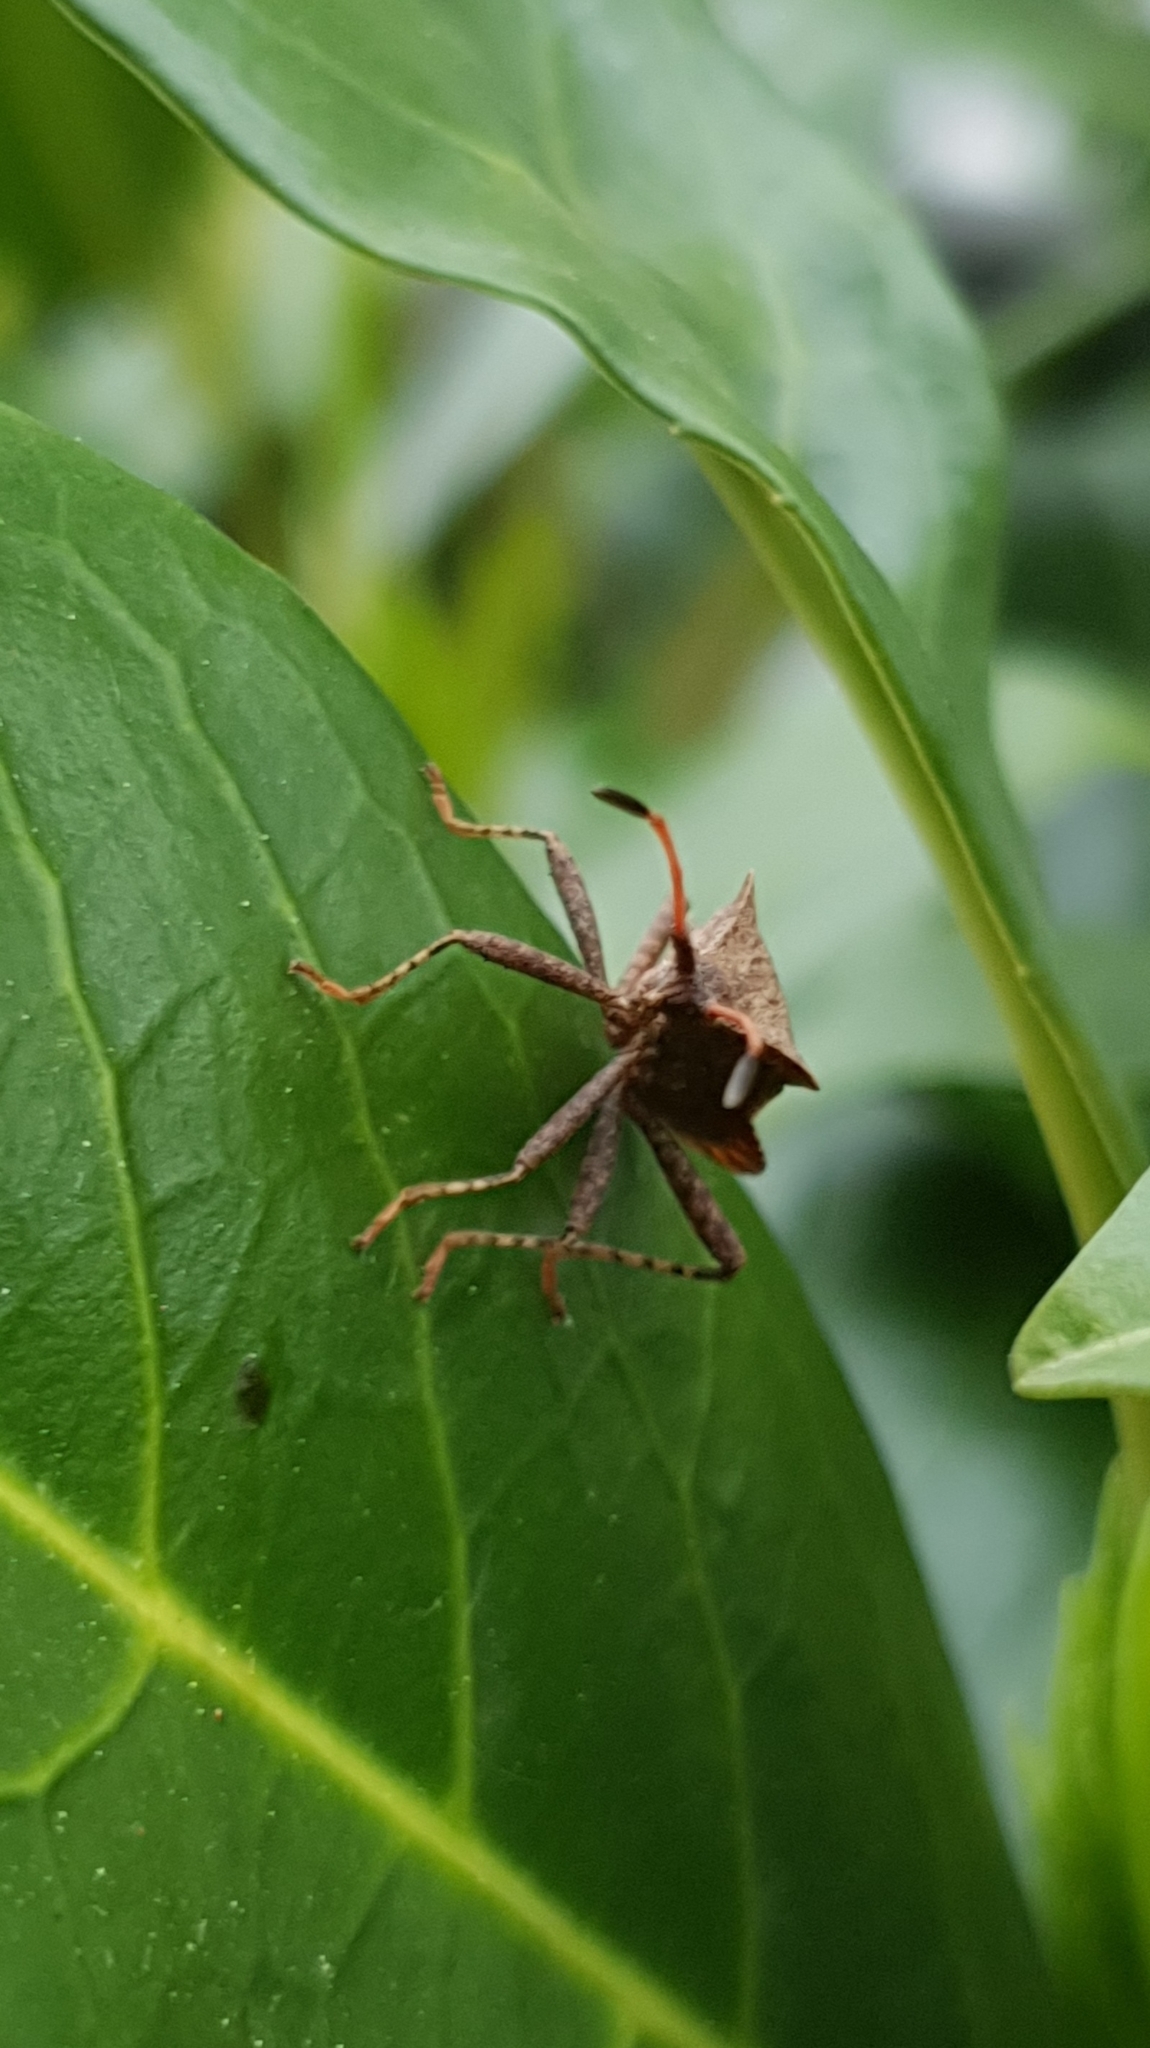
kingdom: Animalia
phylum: Arthropoda
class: Insecta
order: Hemiptera
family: Coreidae
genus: Coreus
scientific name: Coreus marginatus
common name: Dock bug
